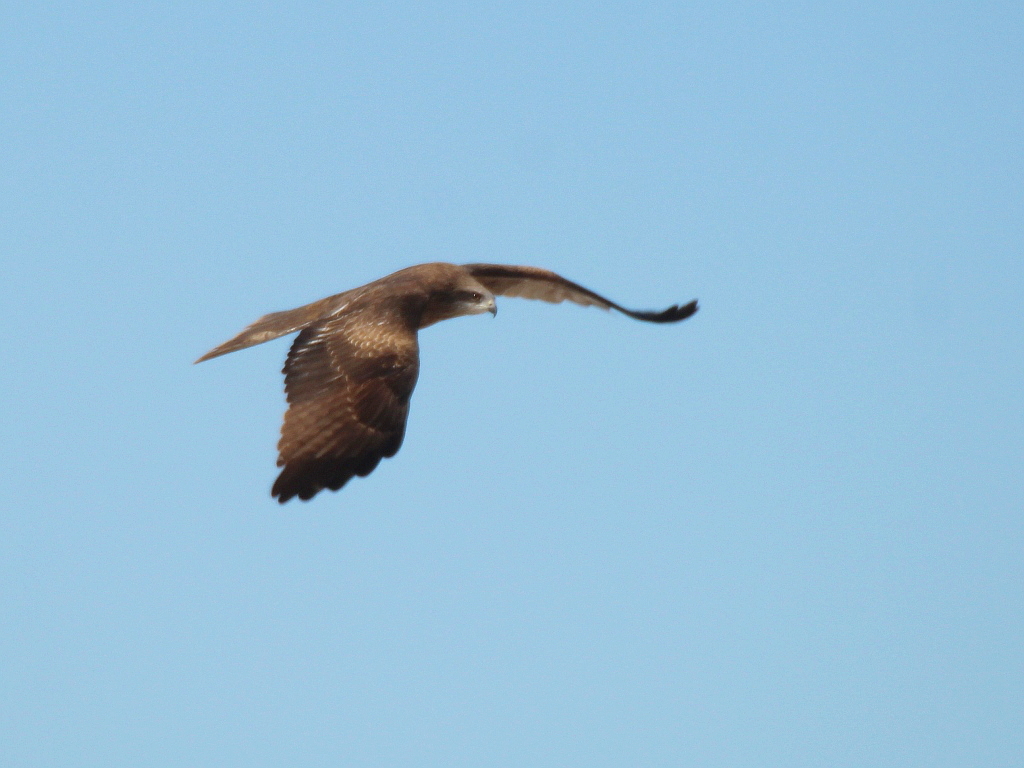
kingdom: Animalia
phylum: Chordata
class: Aves
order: Accipitriformes
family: Accipitridae
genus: Milvus
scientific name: Milvus migrans
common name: Black kite
